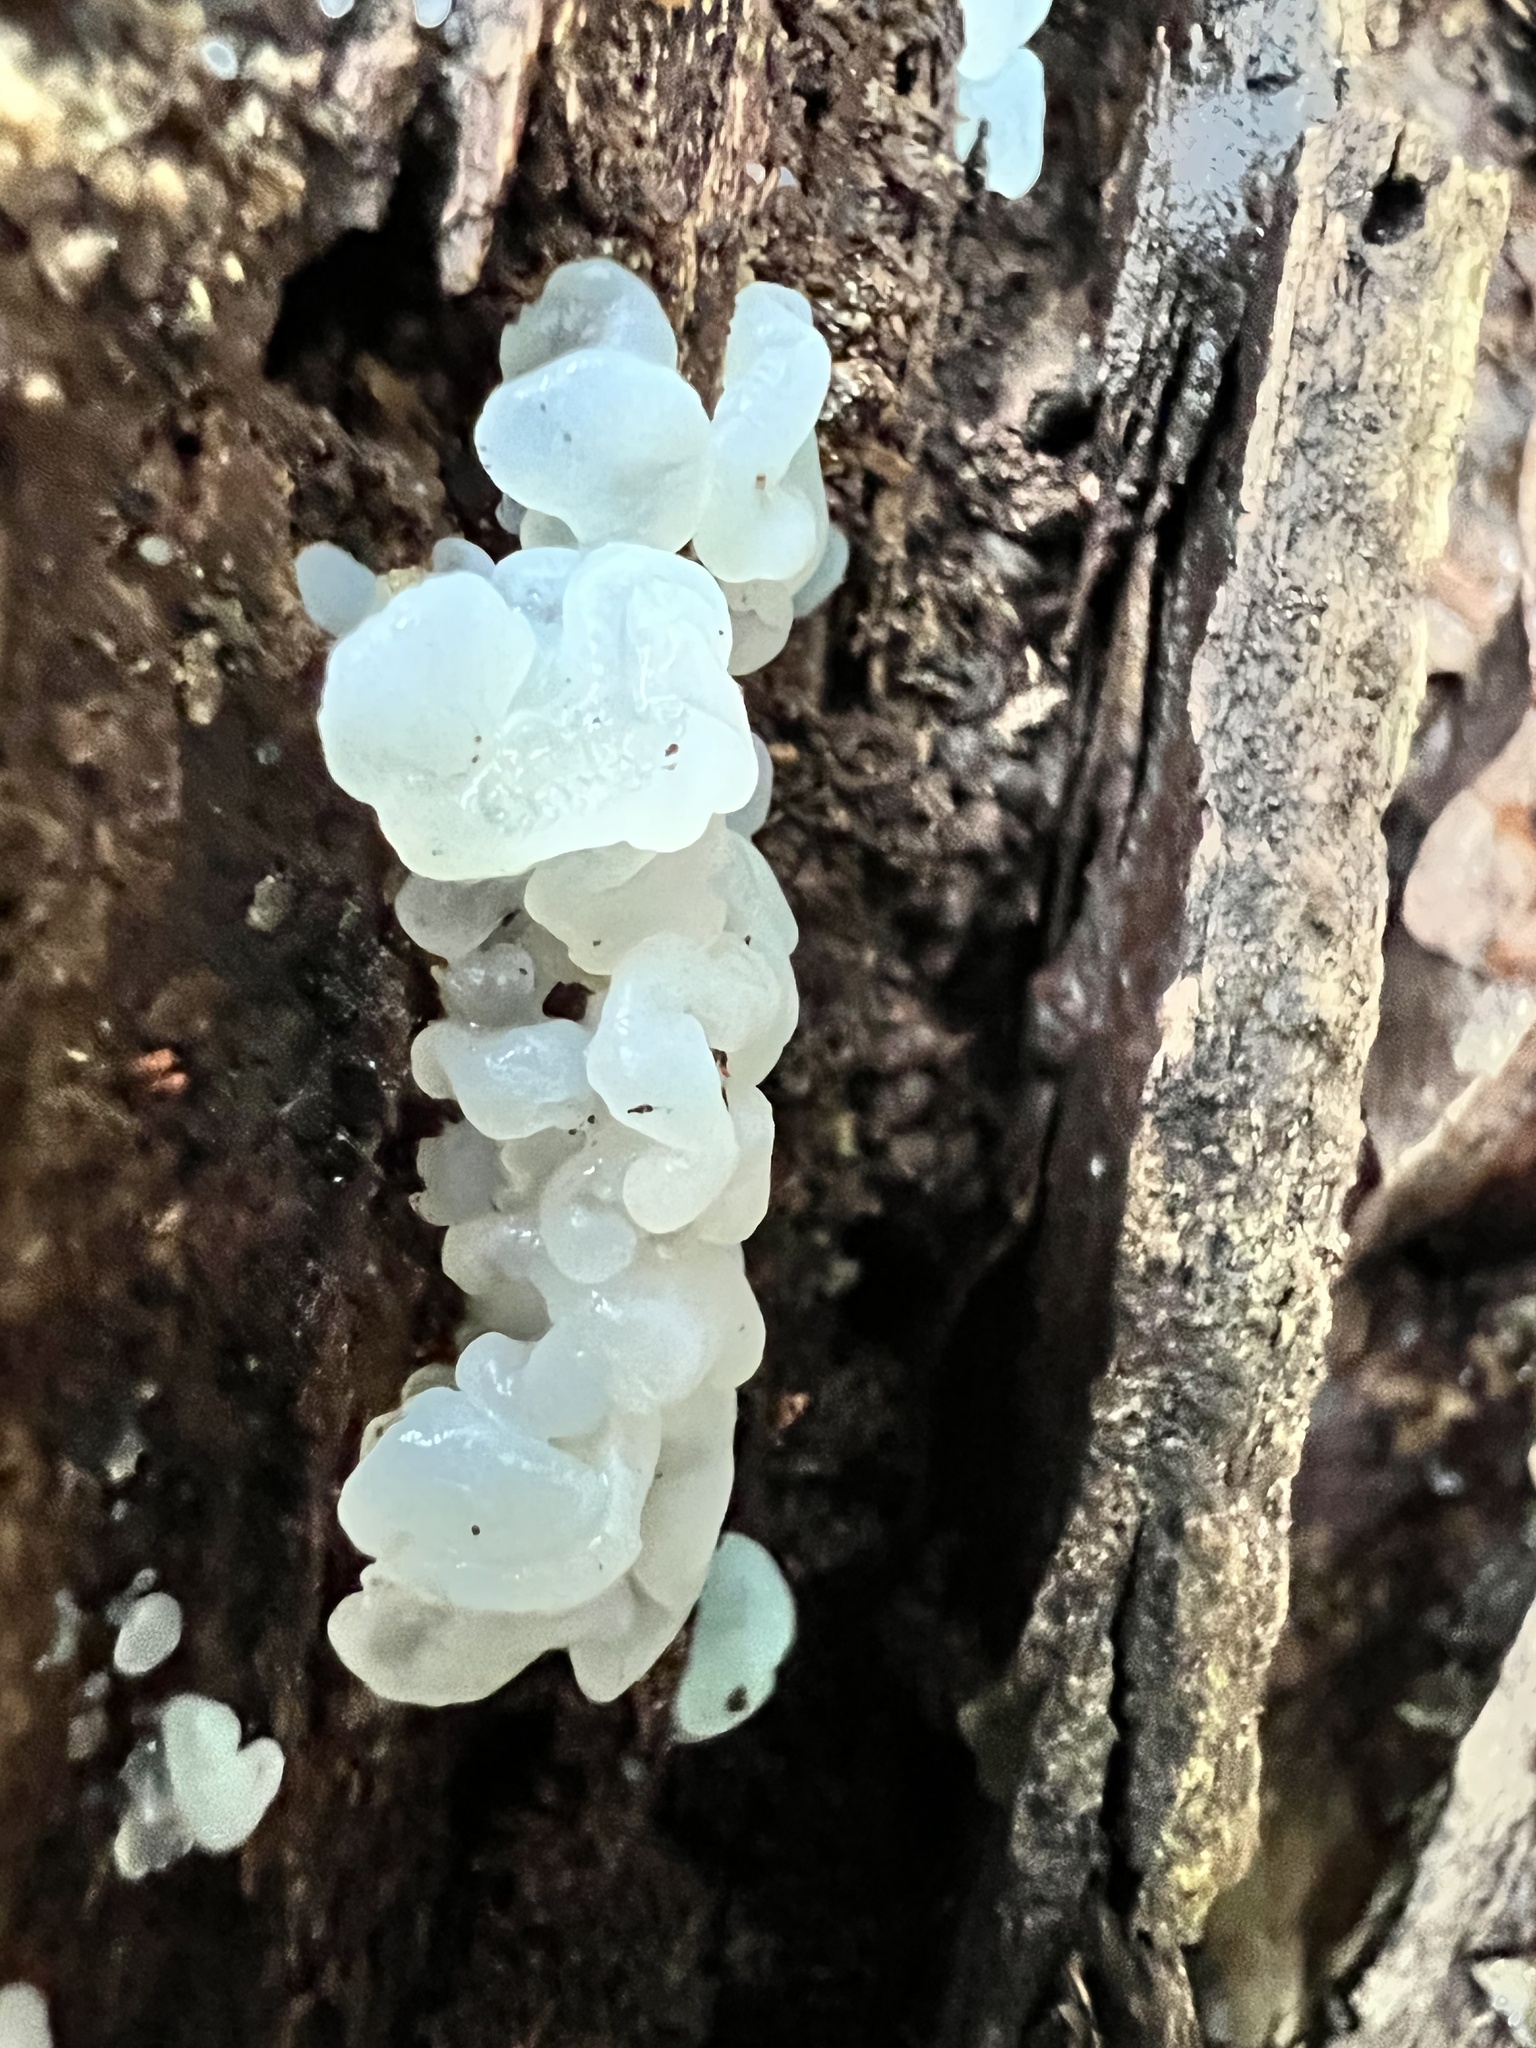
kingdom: Fungi
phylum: Basidiomycota
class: Agaricomycetes
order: Auriculariales
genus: Ductifera
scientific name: Ductifera pululahuana
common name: White jelly fungus
